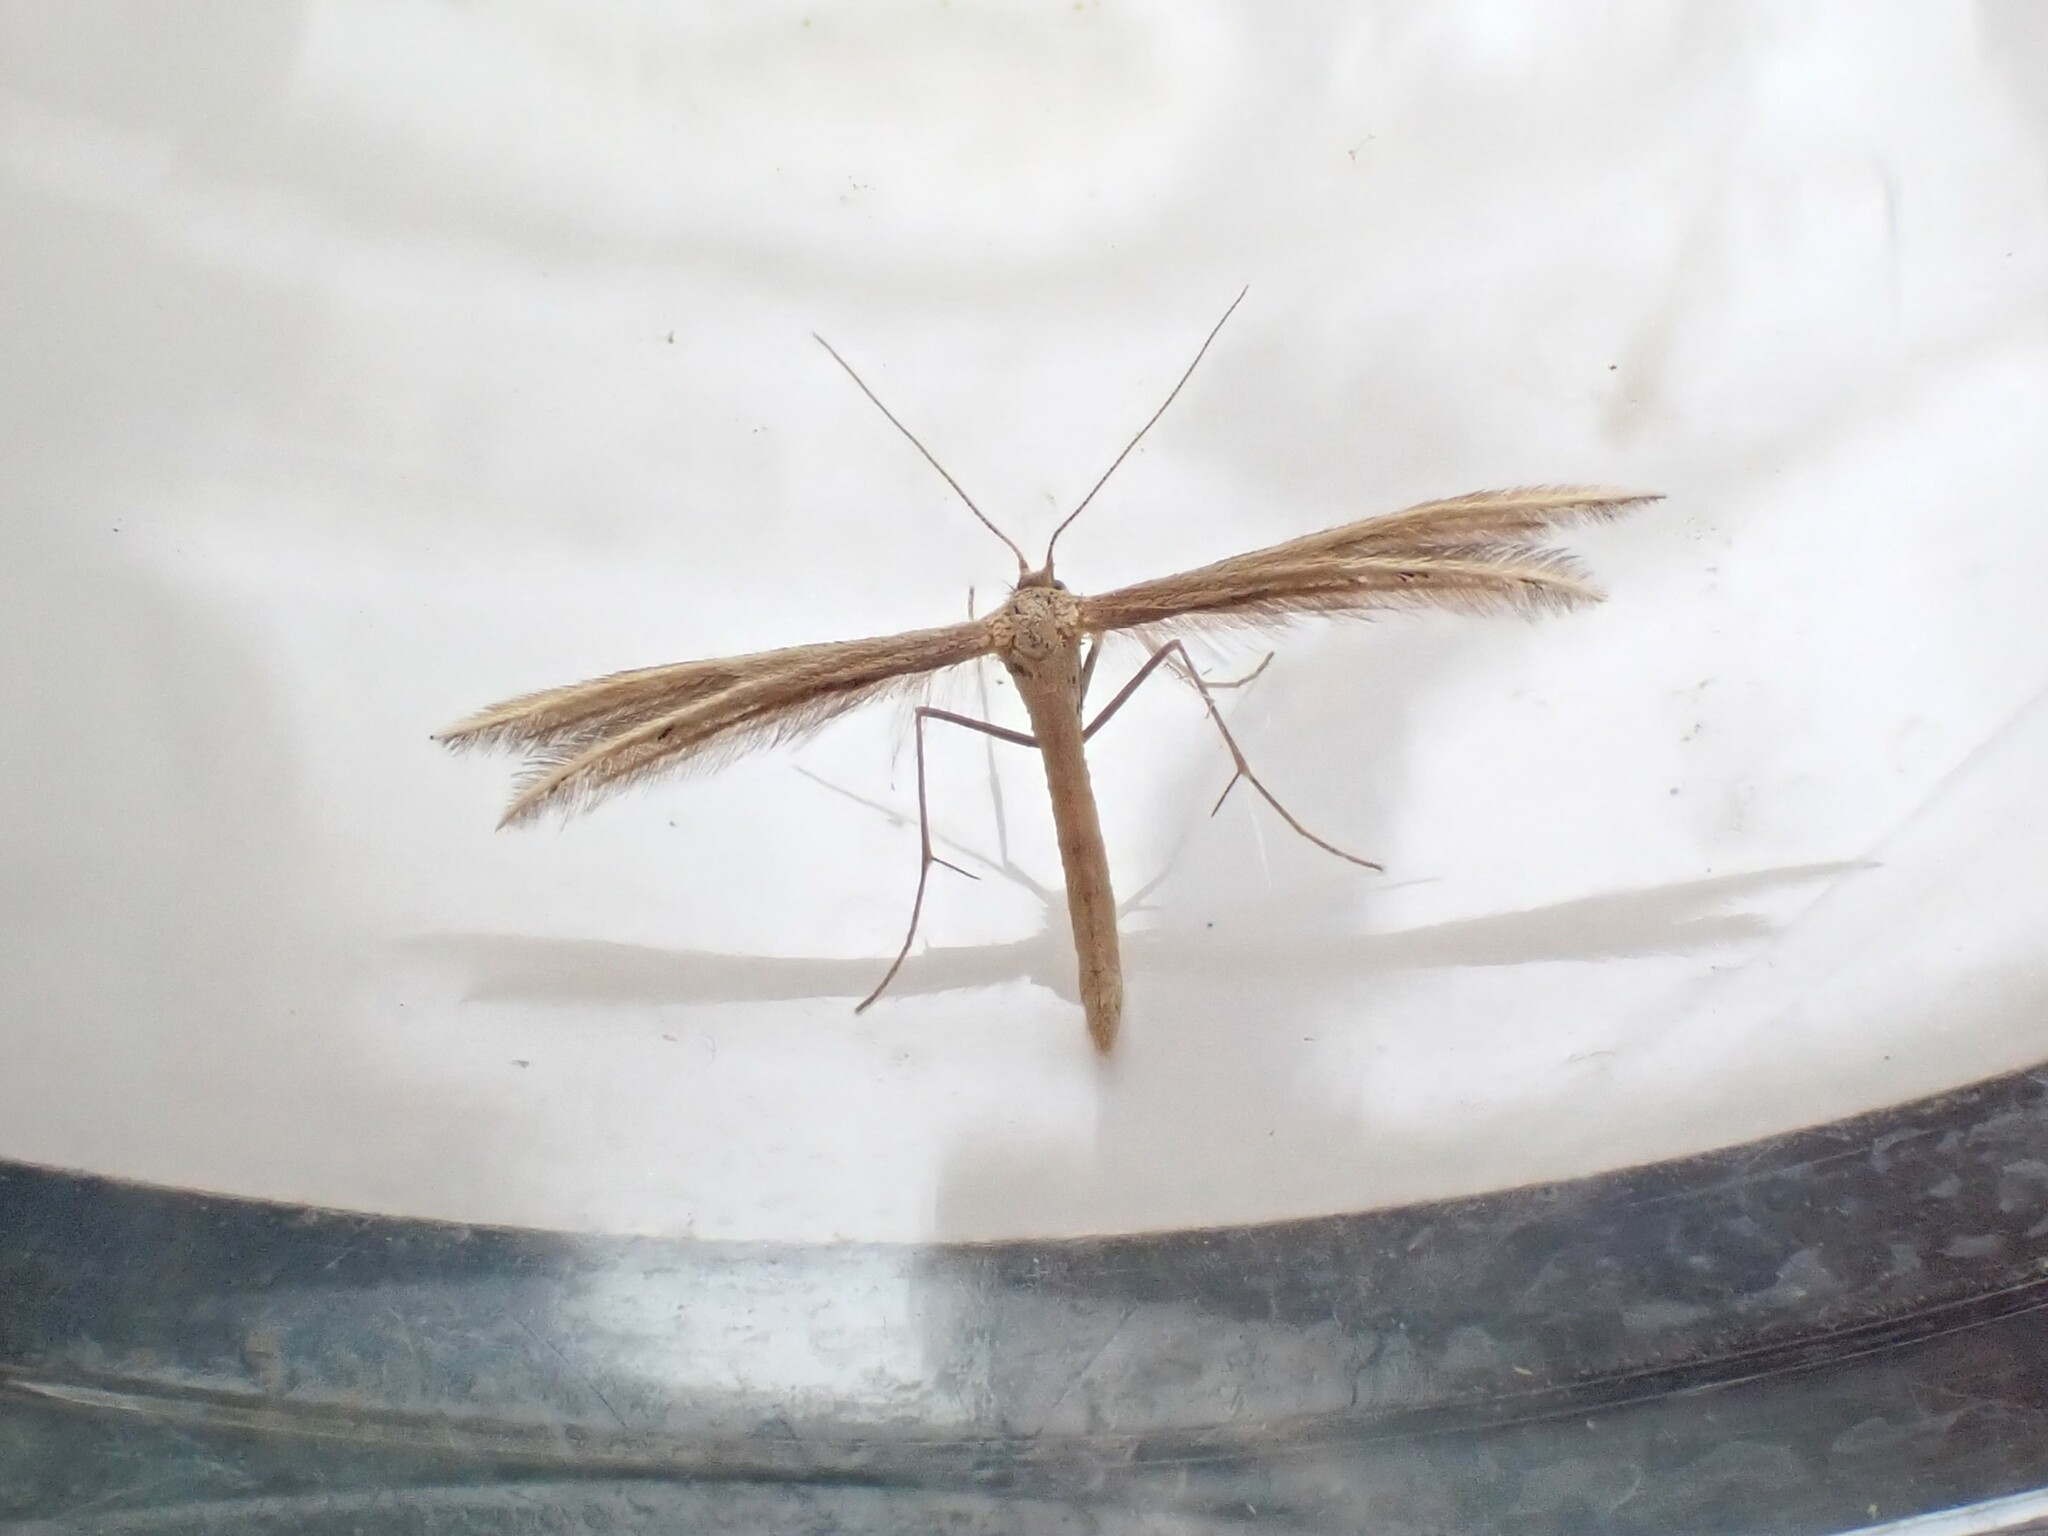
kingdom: Animalia
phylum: Arthropoda
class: Insecta
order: Lepidoptera
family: Pterophoridae
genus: Pterophorus
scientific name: Pterophorus innotatalis
